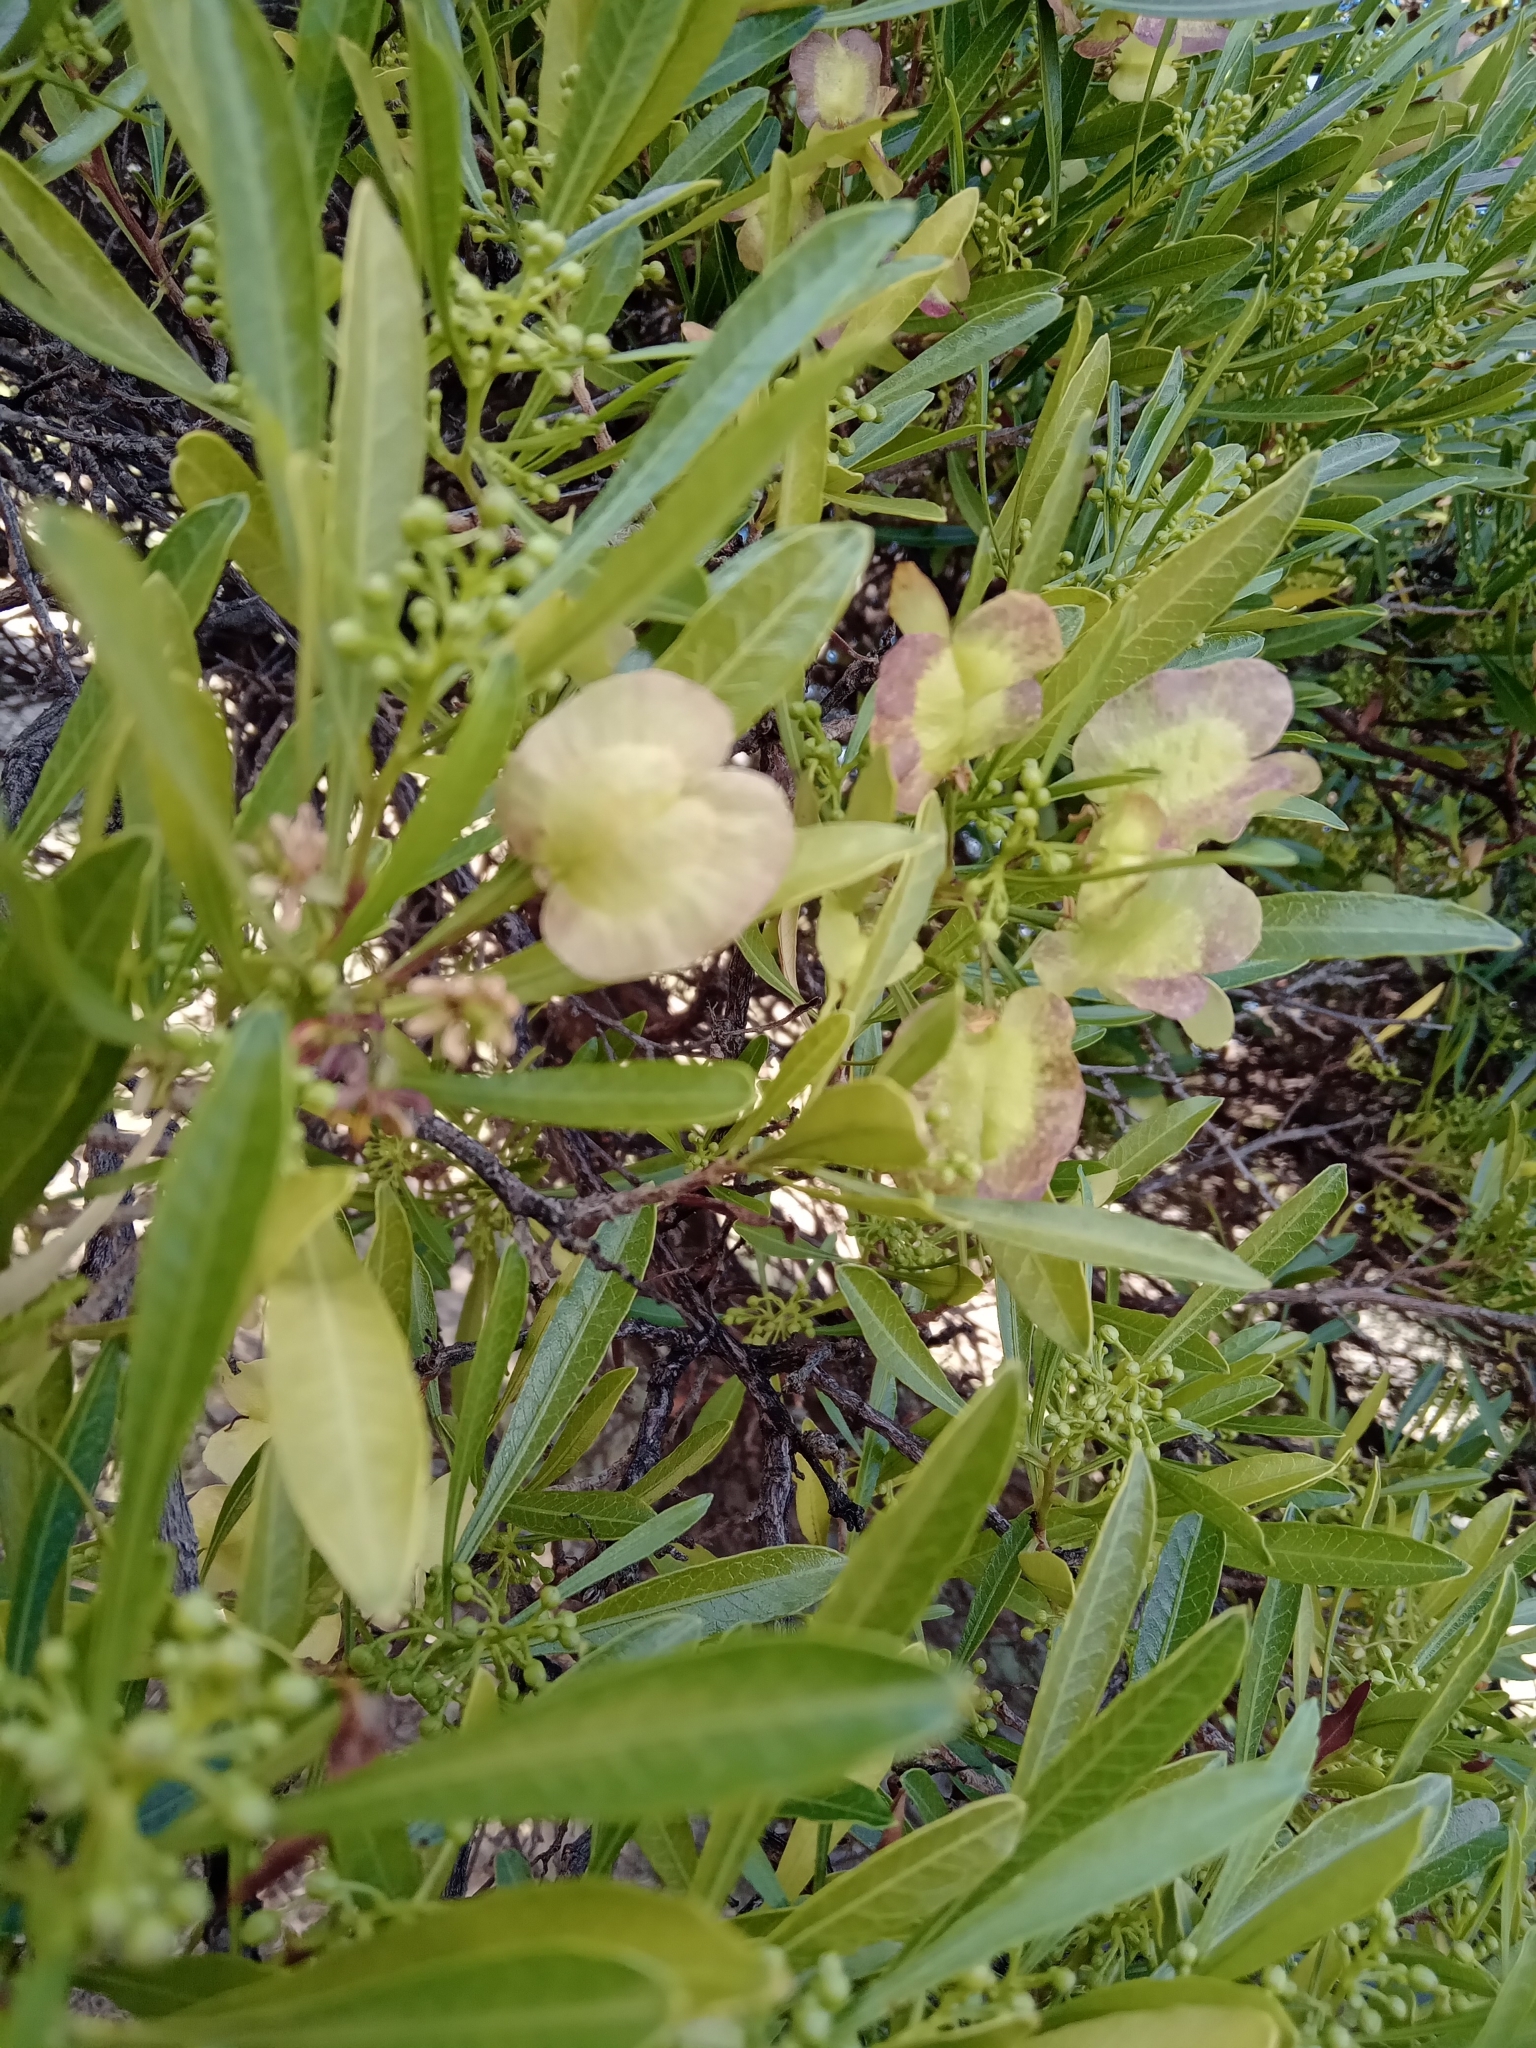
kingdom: Plantae
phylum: Tracheophyta
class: Magnoliopsida
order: Sapindales
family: Sapindaceae
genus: Dodonaea
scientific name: Dodonaea viscosa
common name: Hopbush
